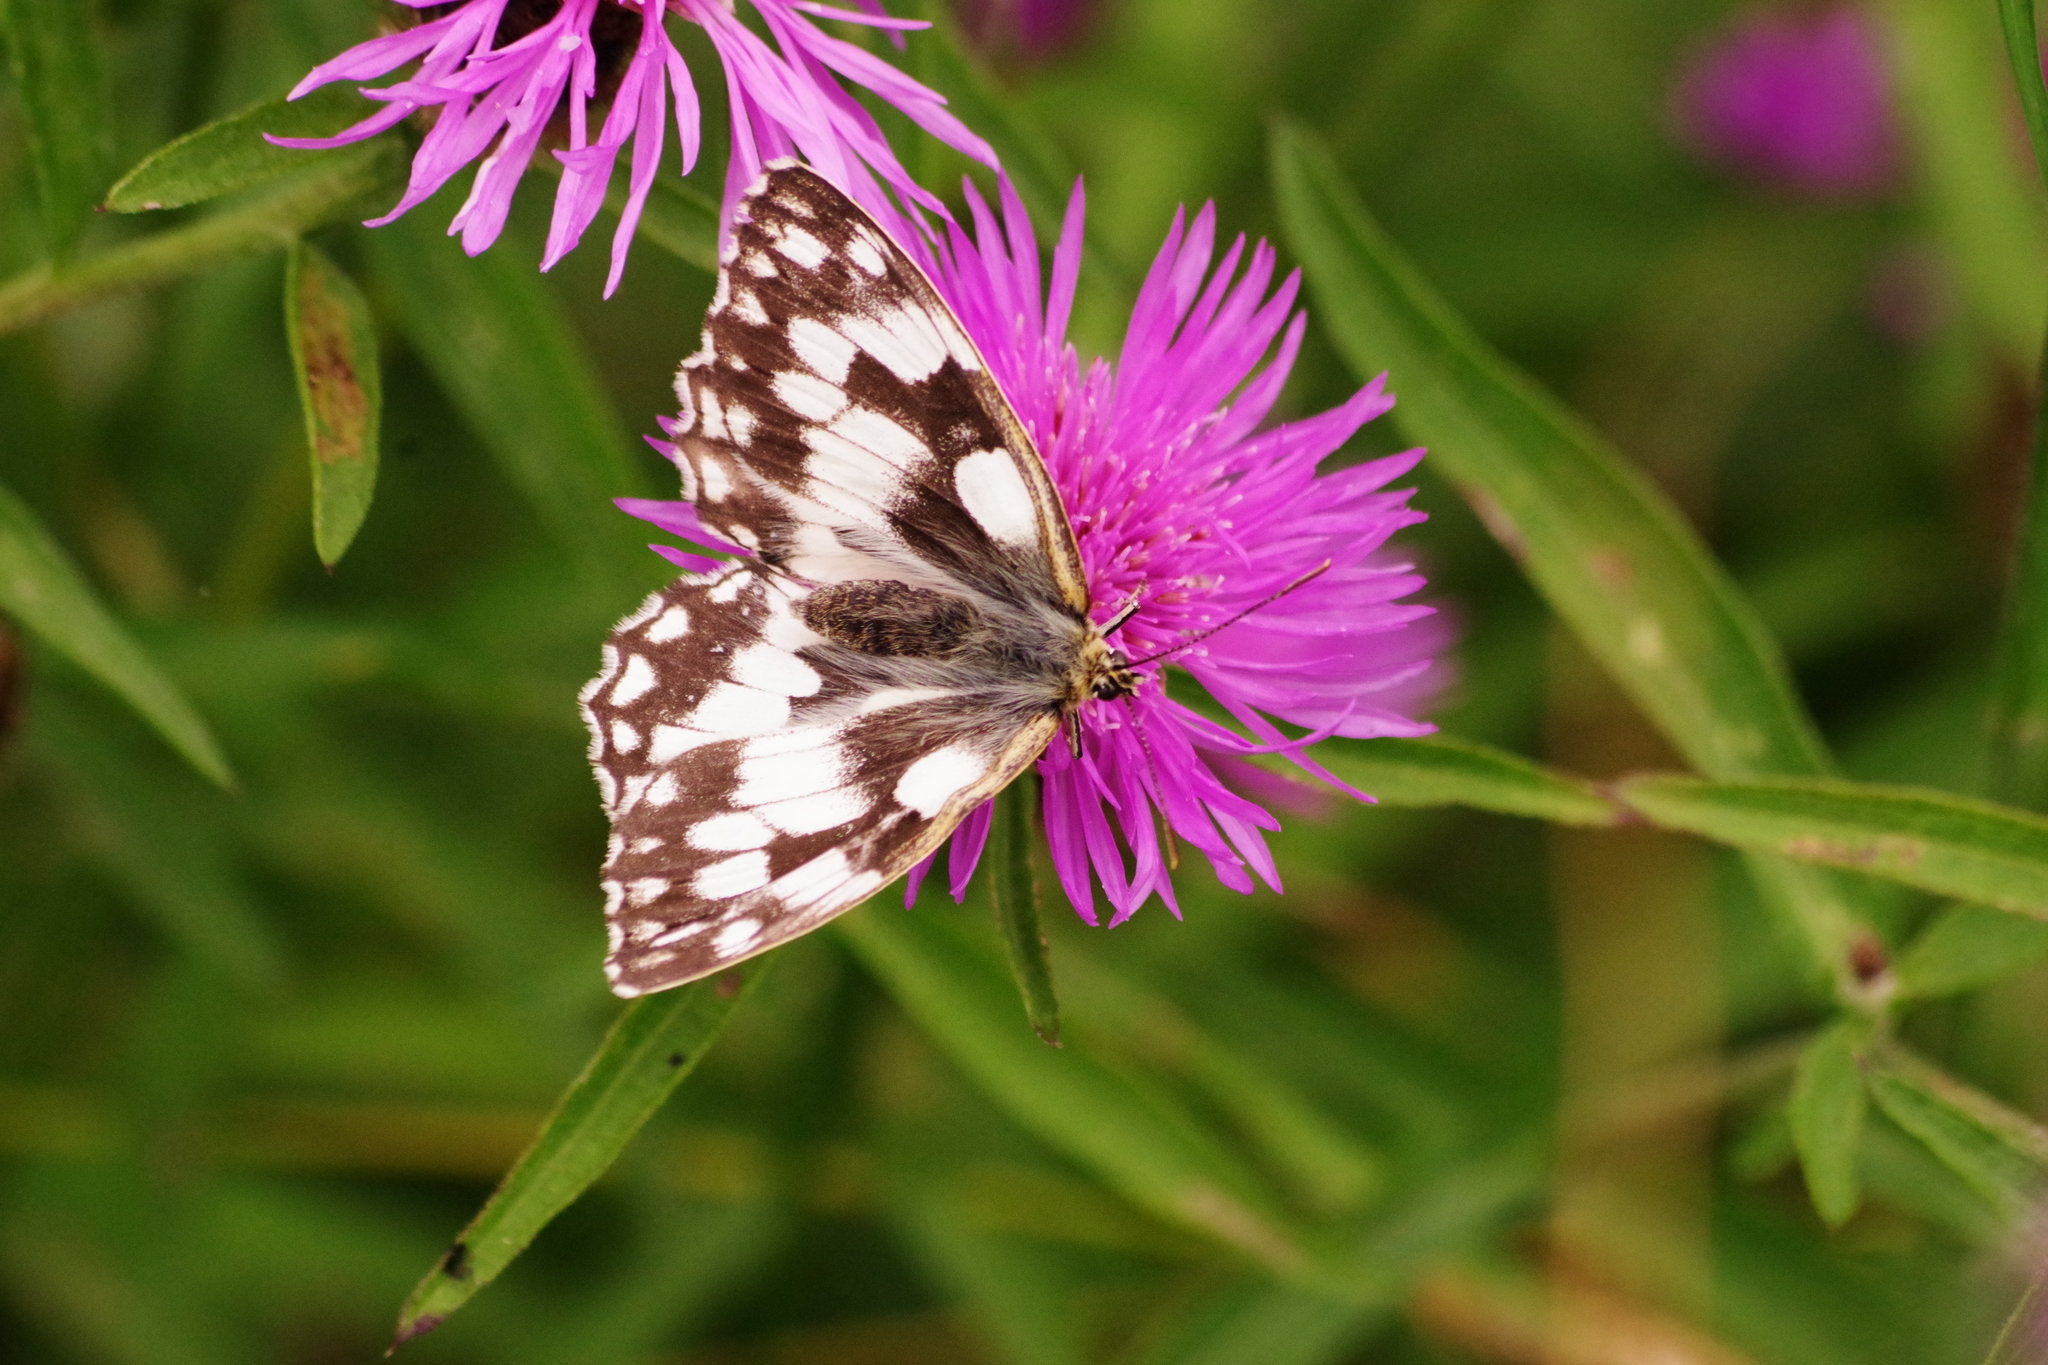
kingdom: Animalia
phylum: Arthropoda
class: Insecta
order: Lepidoptera
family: Nymphalidae
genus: Melanargia
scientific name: Melanargia galathea
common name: Marbled white
